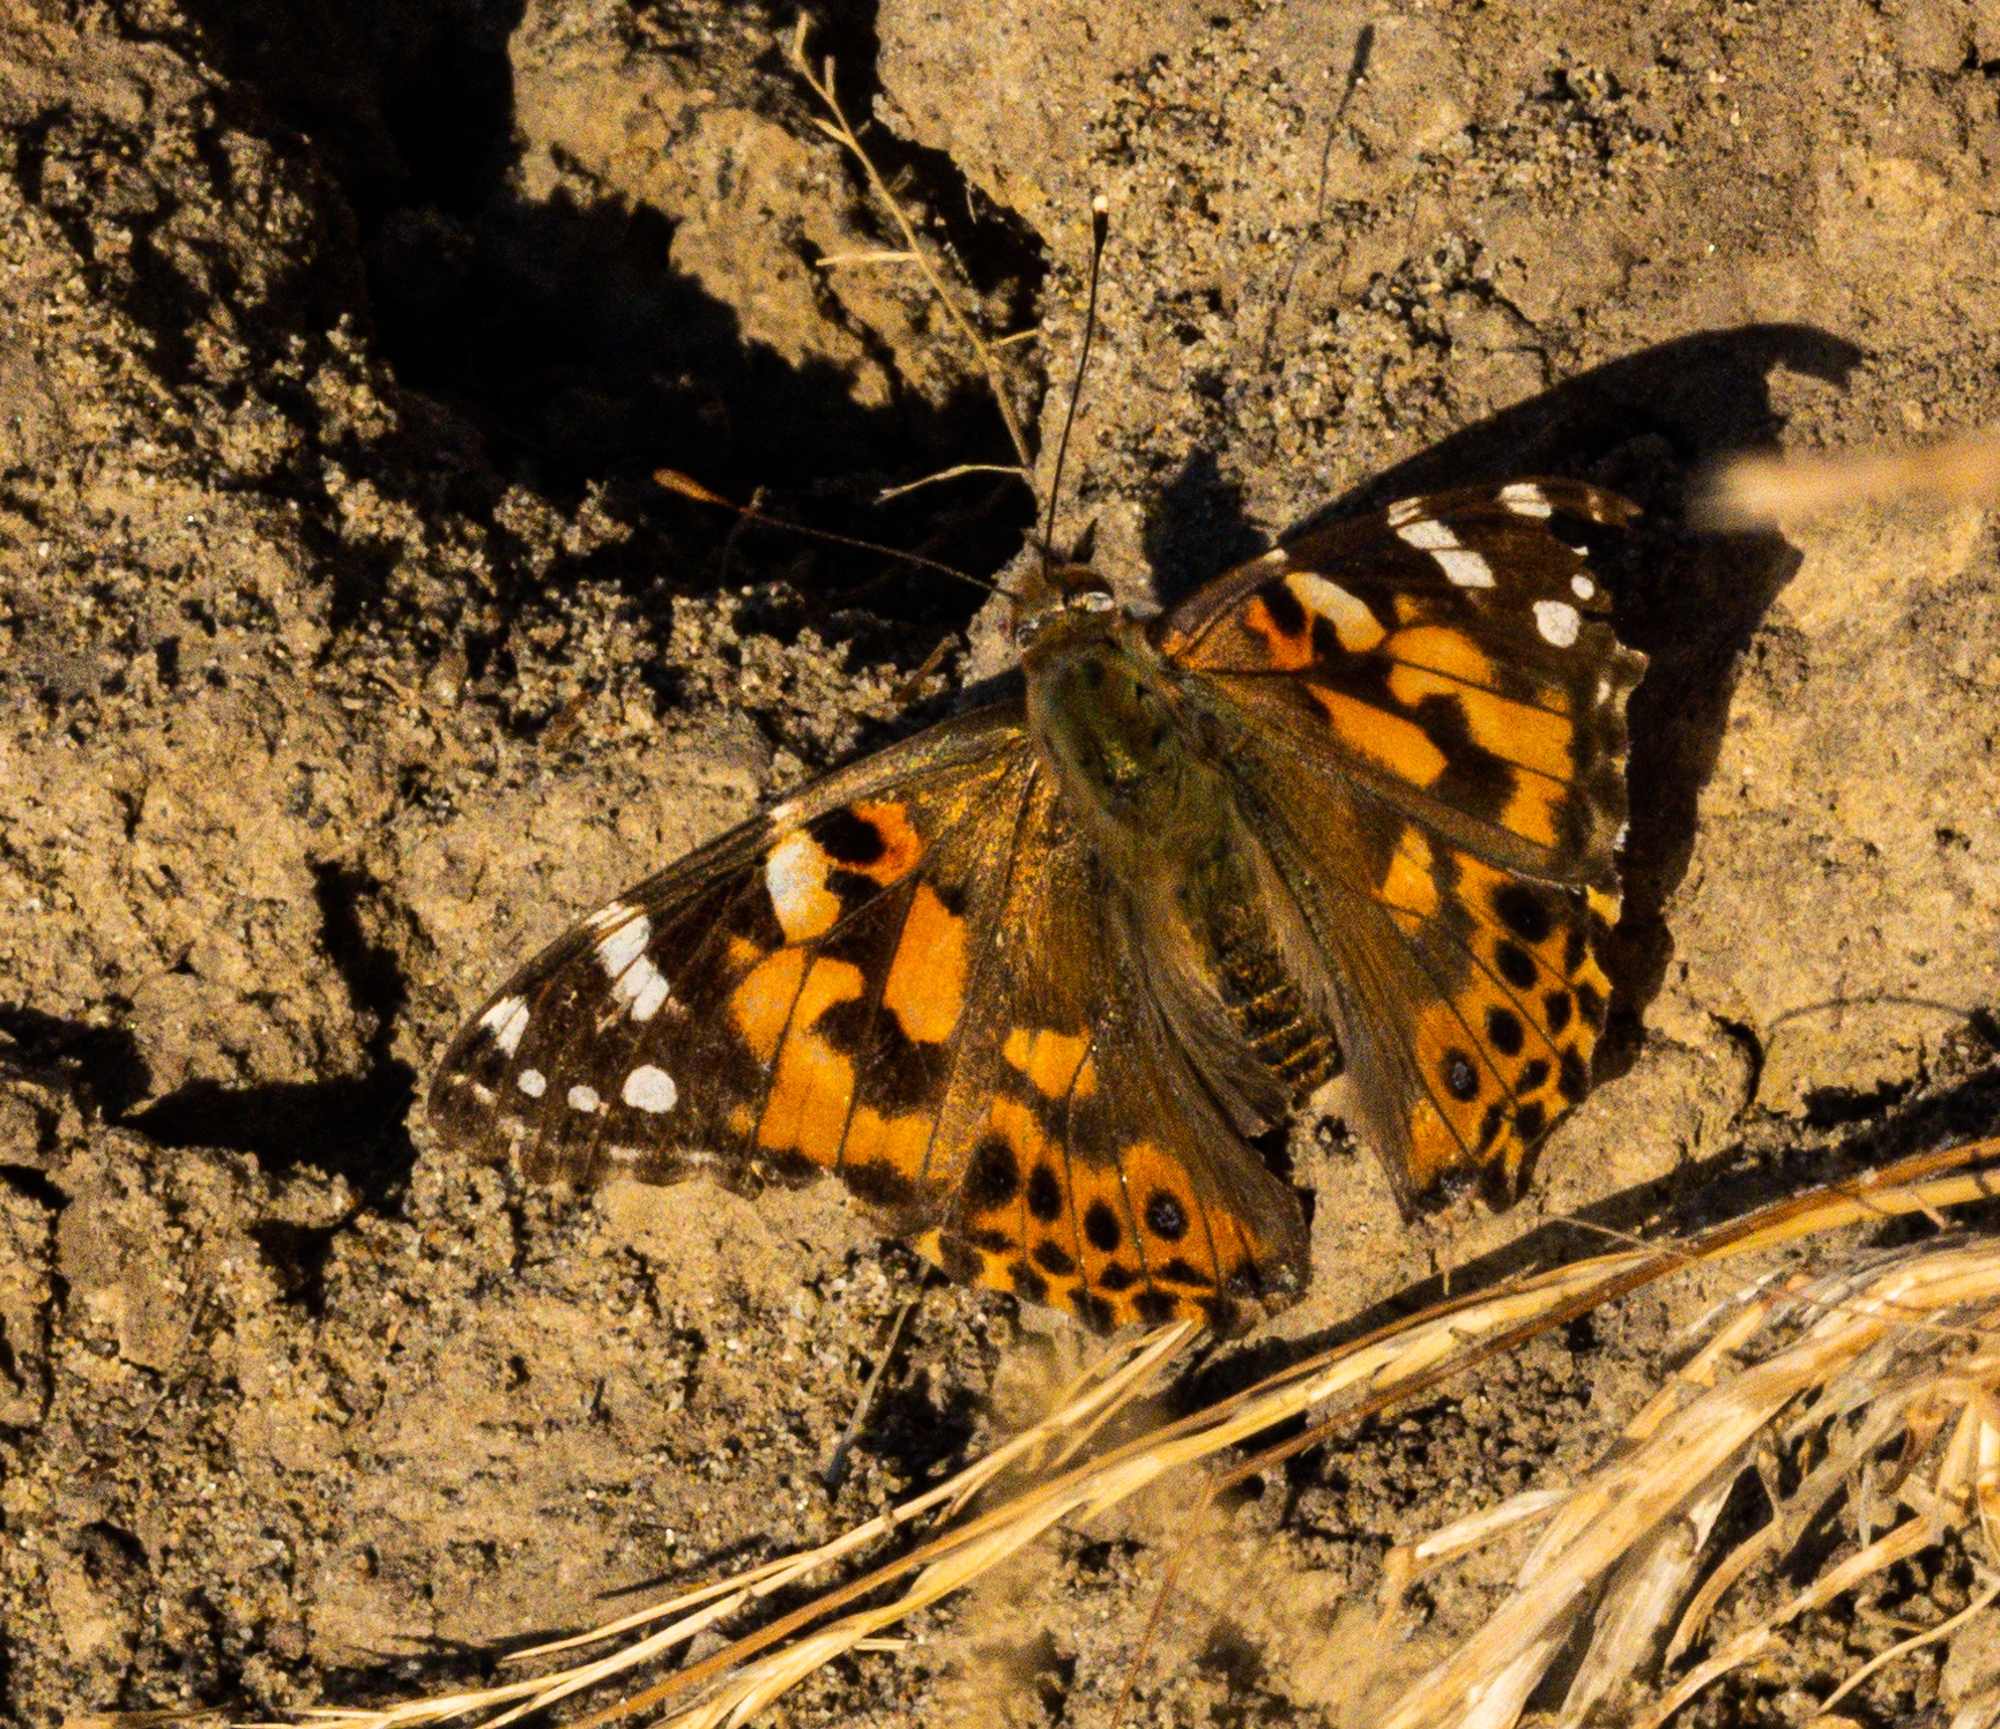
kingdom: Animalia
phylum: Arthropoda
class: Insecta
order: Lepidoptera
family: Nymphalidae
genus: Vanessa
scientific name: Vanessa cardui
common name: Painted lady
